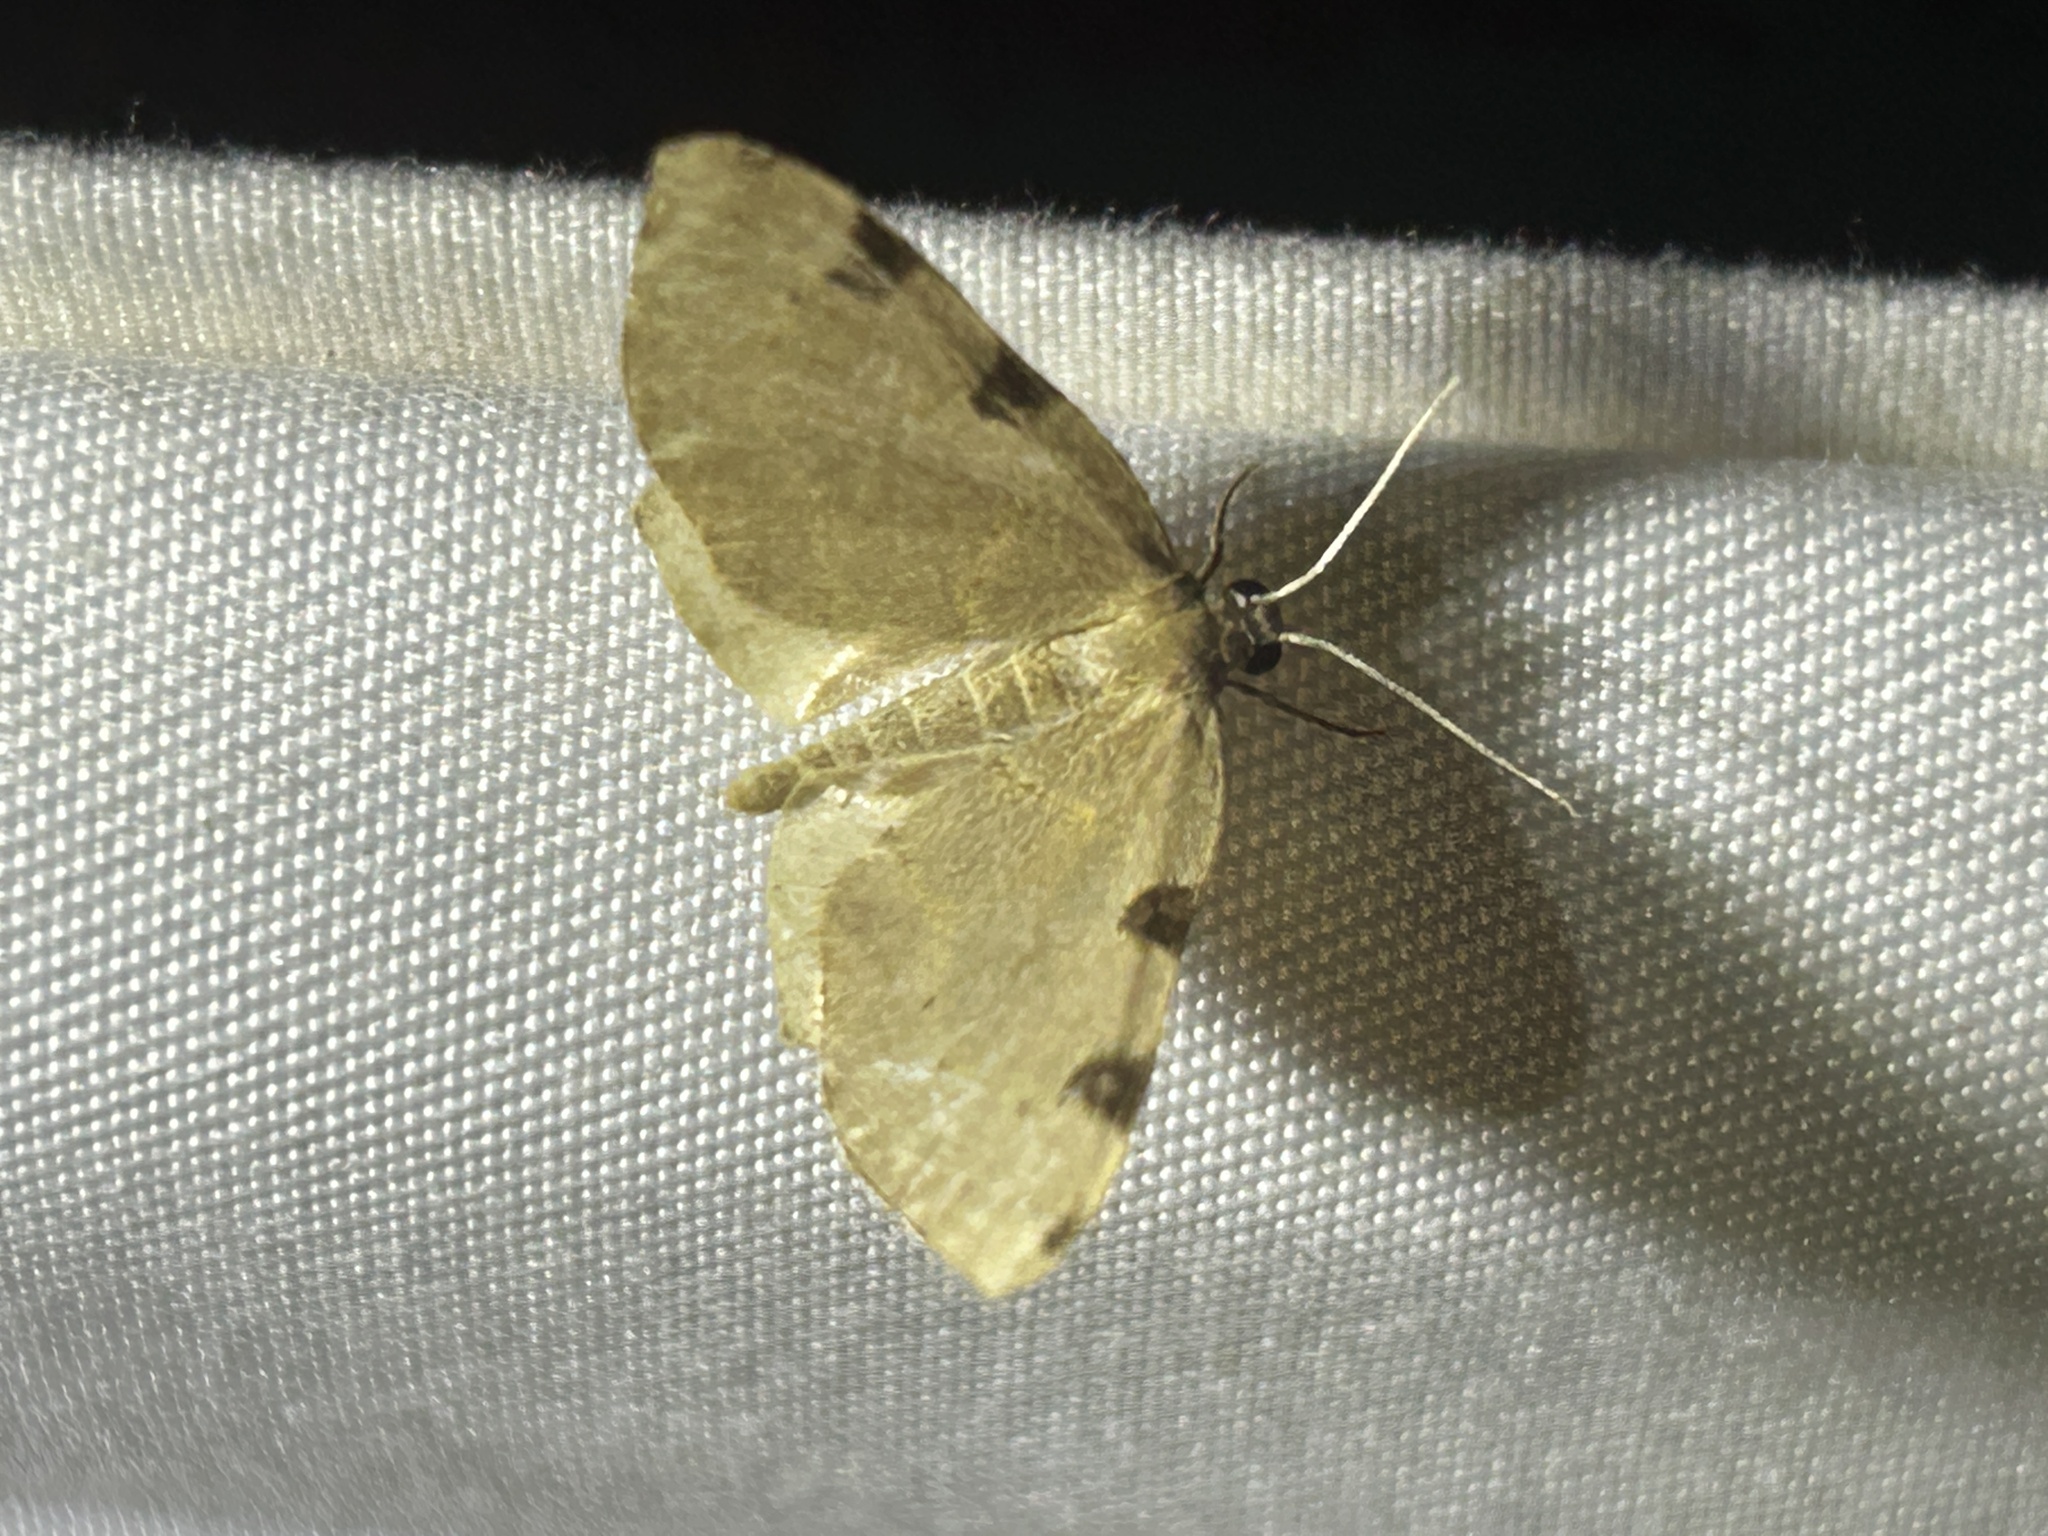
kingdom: Animalia
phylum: Arthropoda
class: Insecta
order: Lepidoptera
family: Geometridae
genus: Heterophleps
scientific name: Heterophleps triguttaria
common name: Three-spotted fillip
